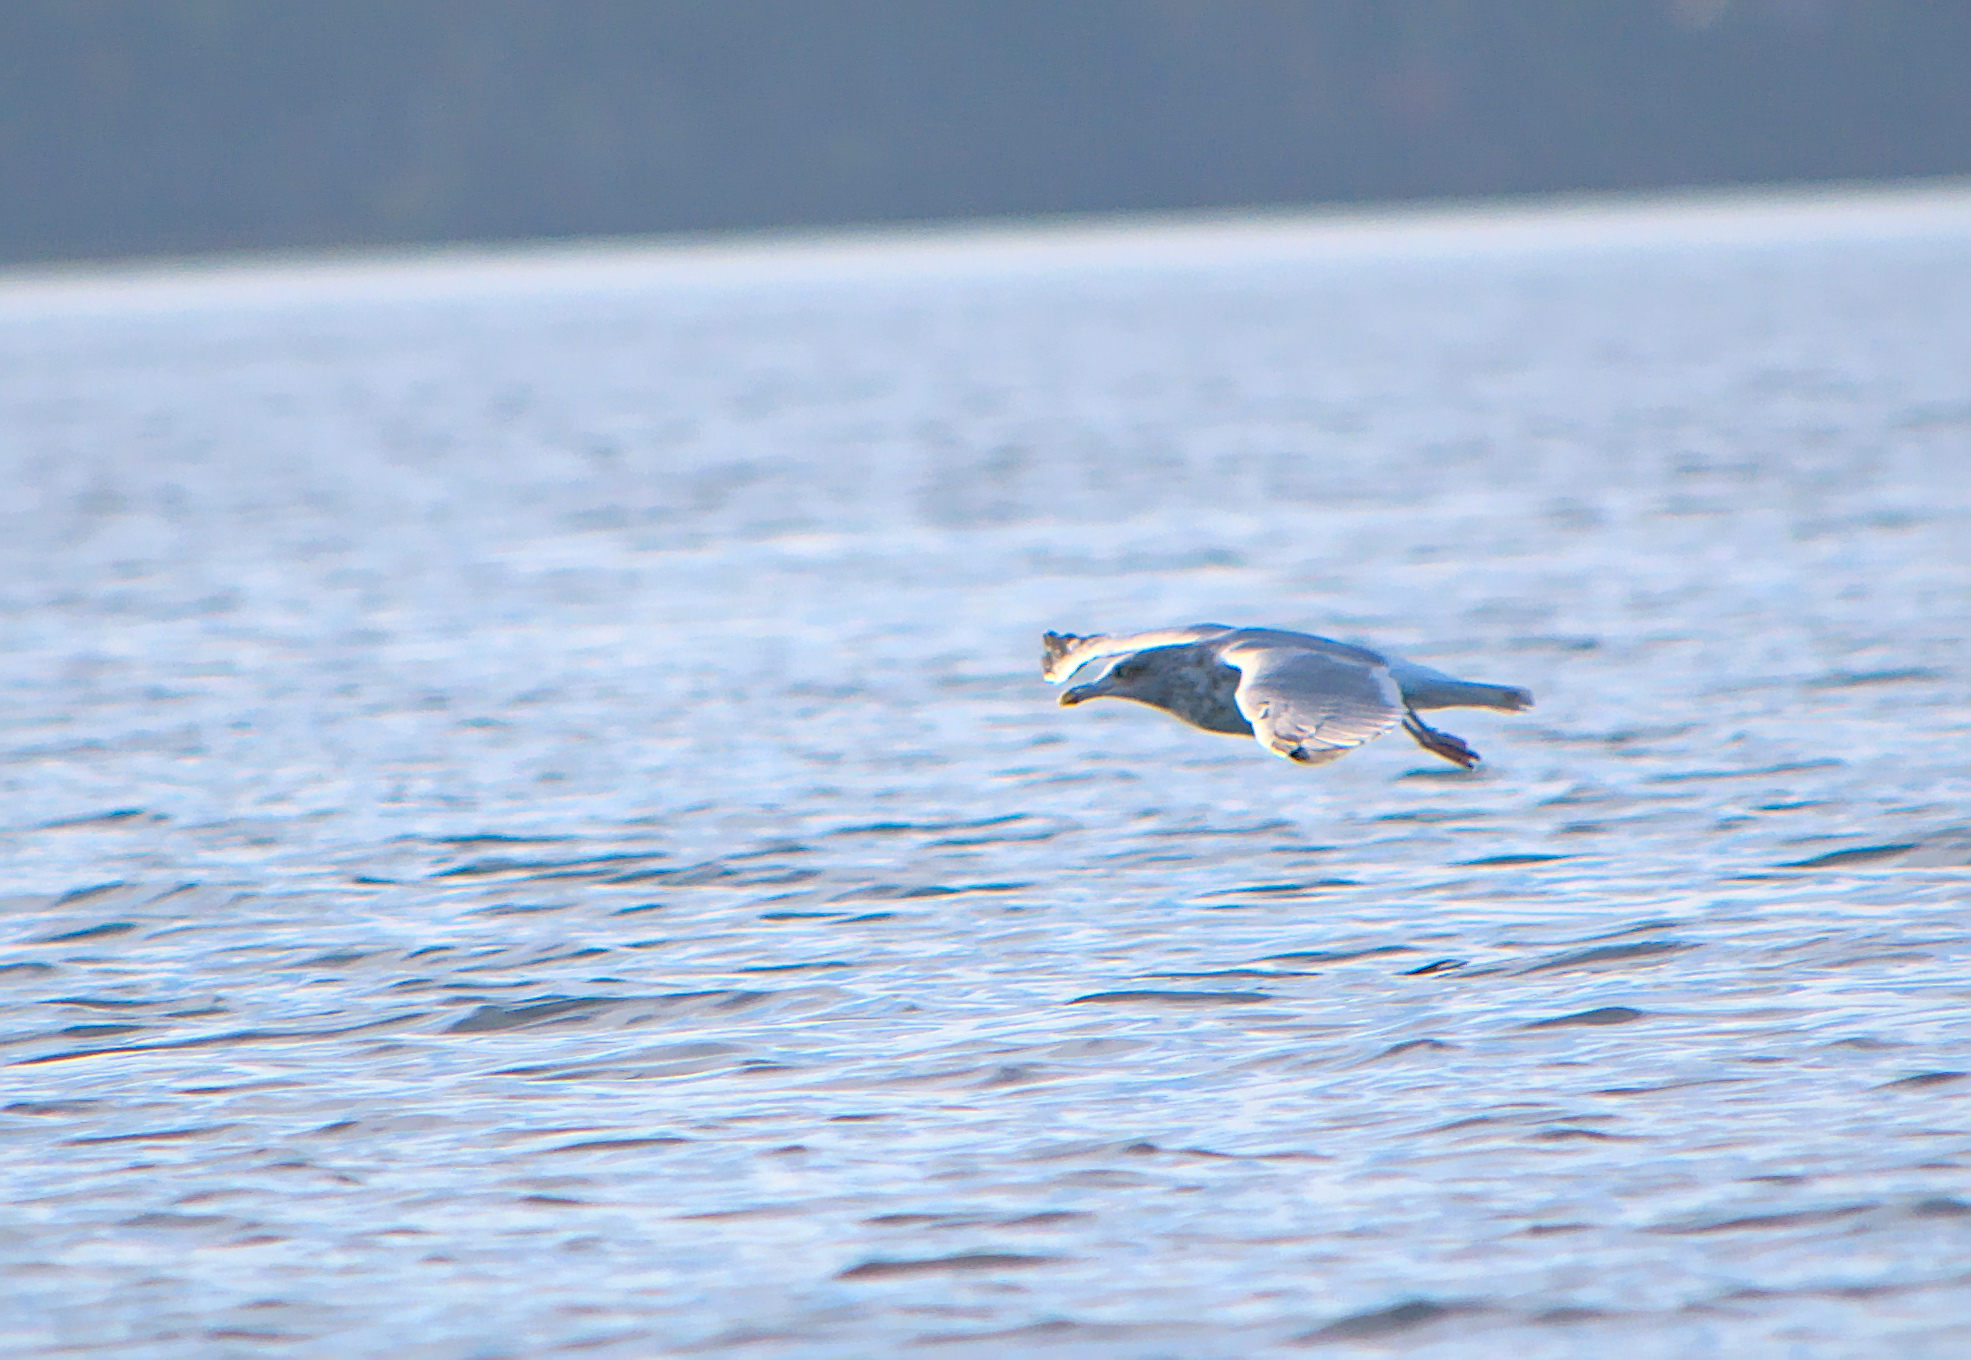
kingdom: Animalia
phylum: Chordata
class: Aves
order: Charadriiformes
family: Laridae
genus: Larus
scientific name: Larus argentatus
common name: Herring gull
